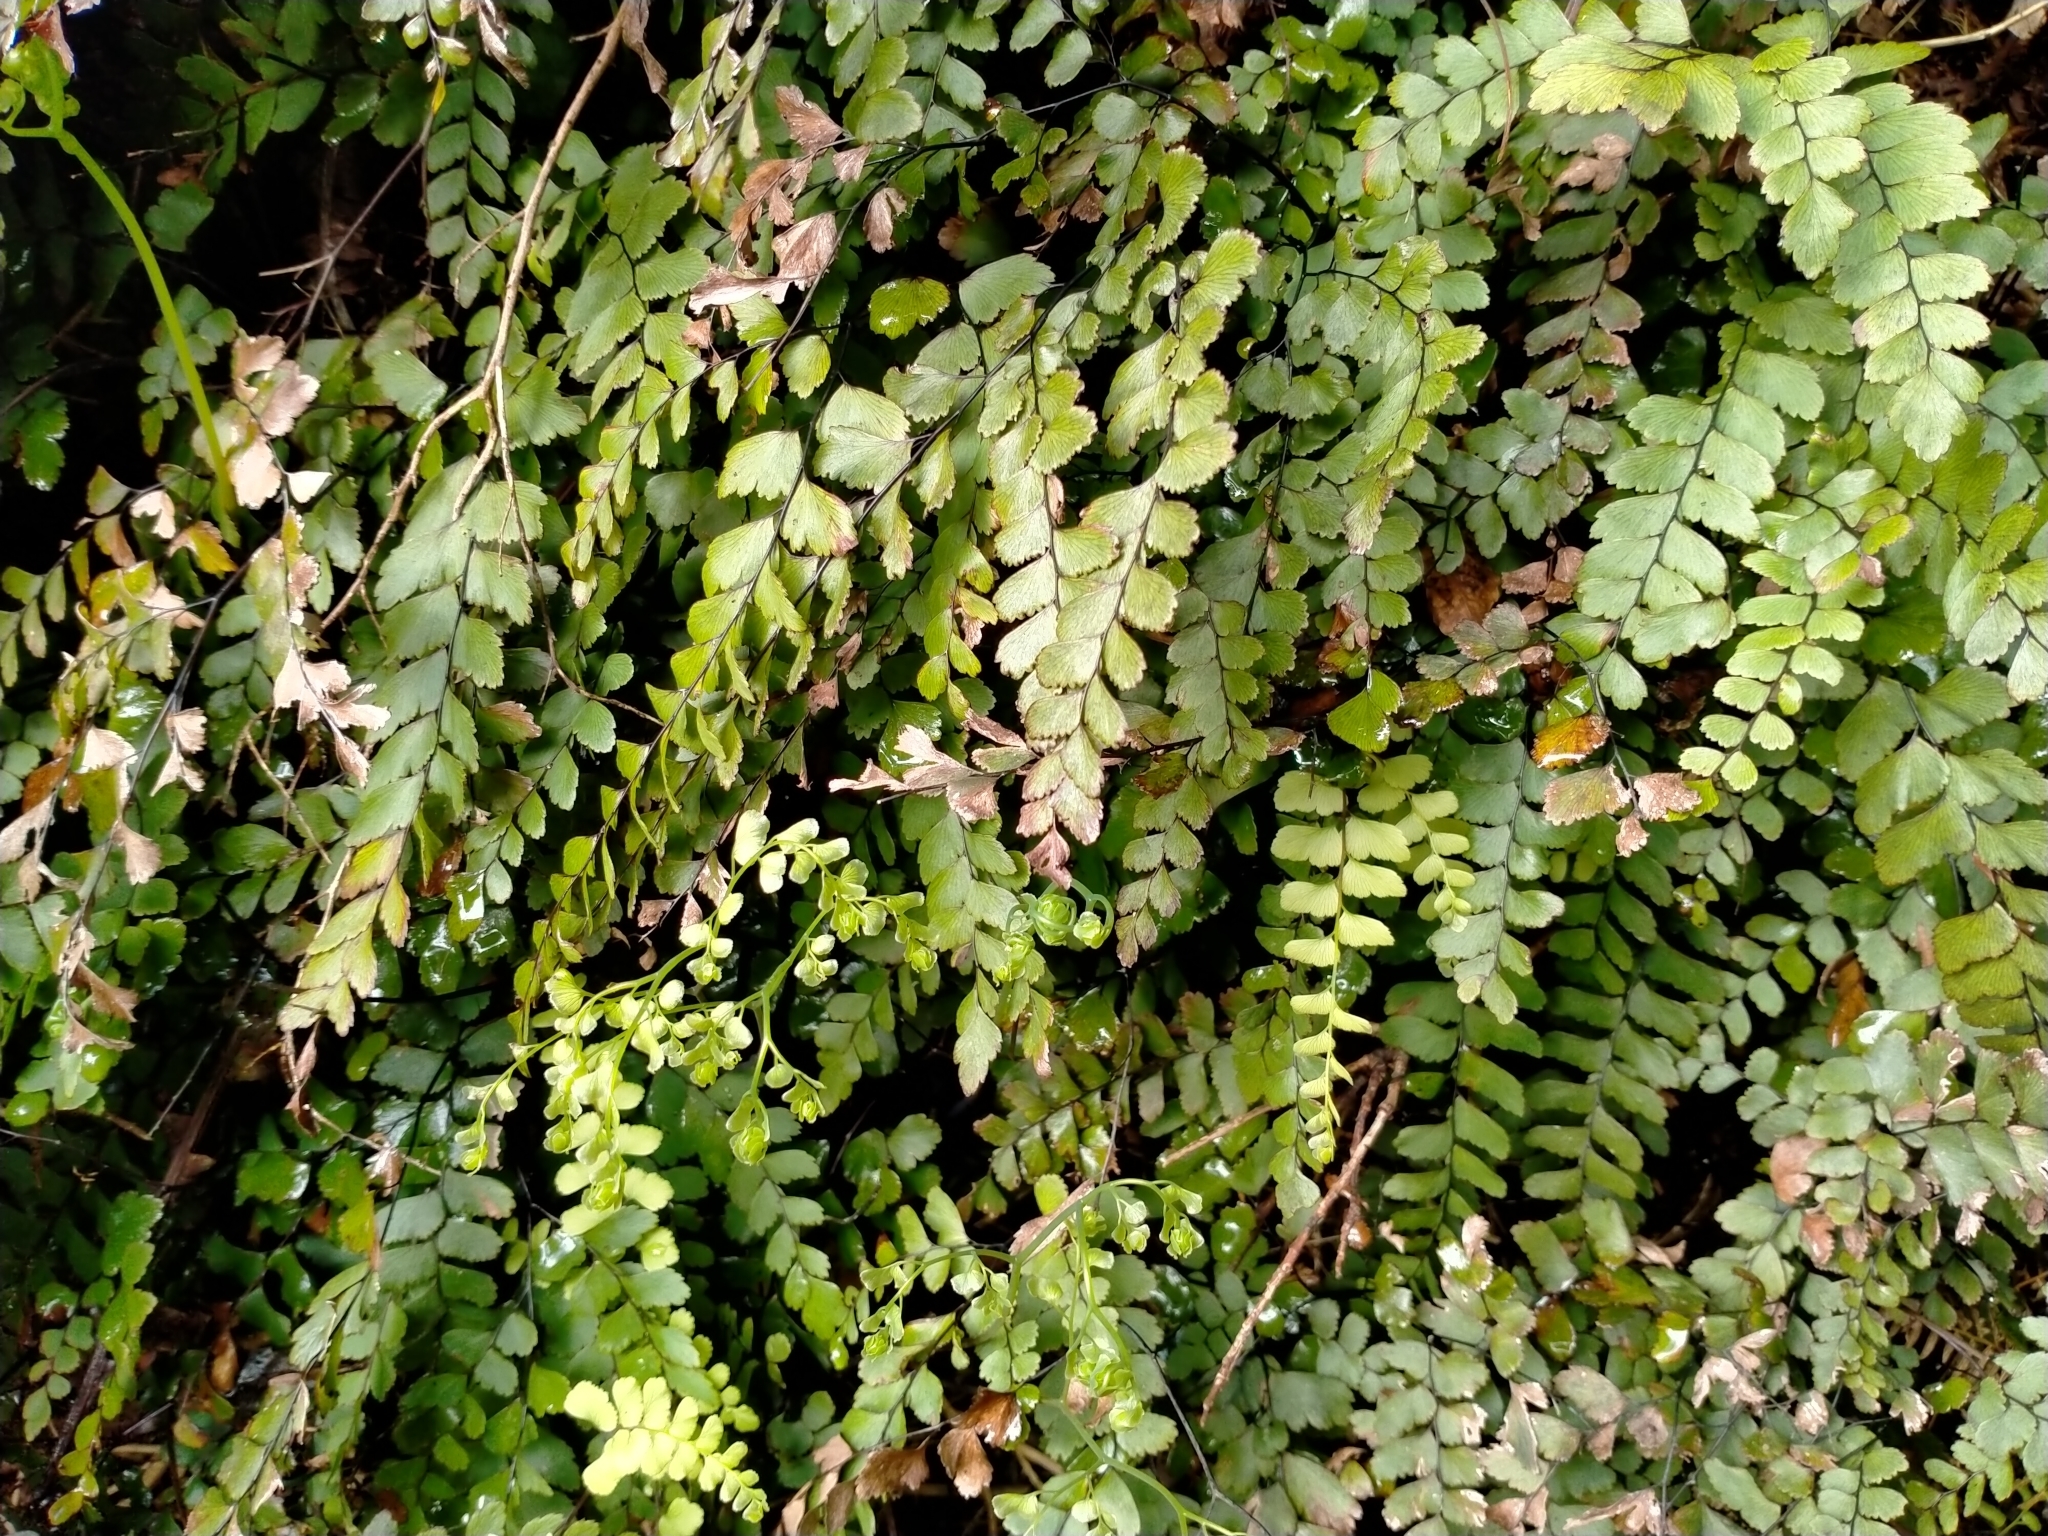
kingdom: Plantae
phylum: Tracheophyta
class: Polypodiopsida
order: Polypodiales
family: Pteridaceae
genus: Adiantum
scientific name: Adiantum cunninghamii
